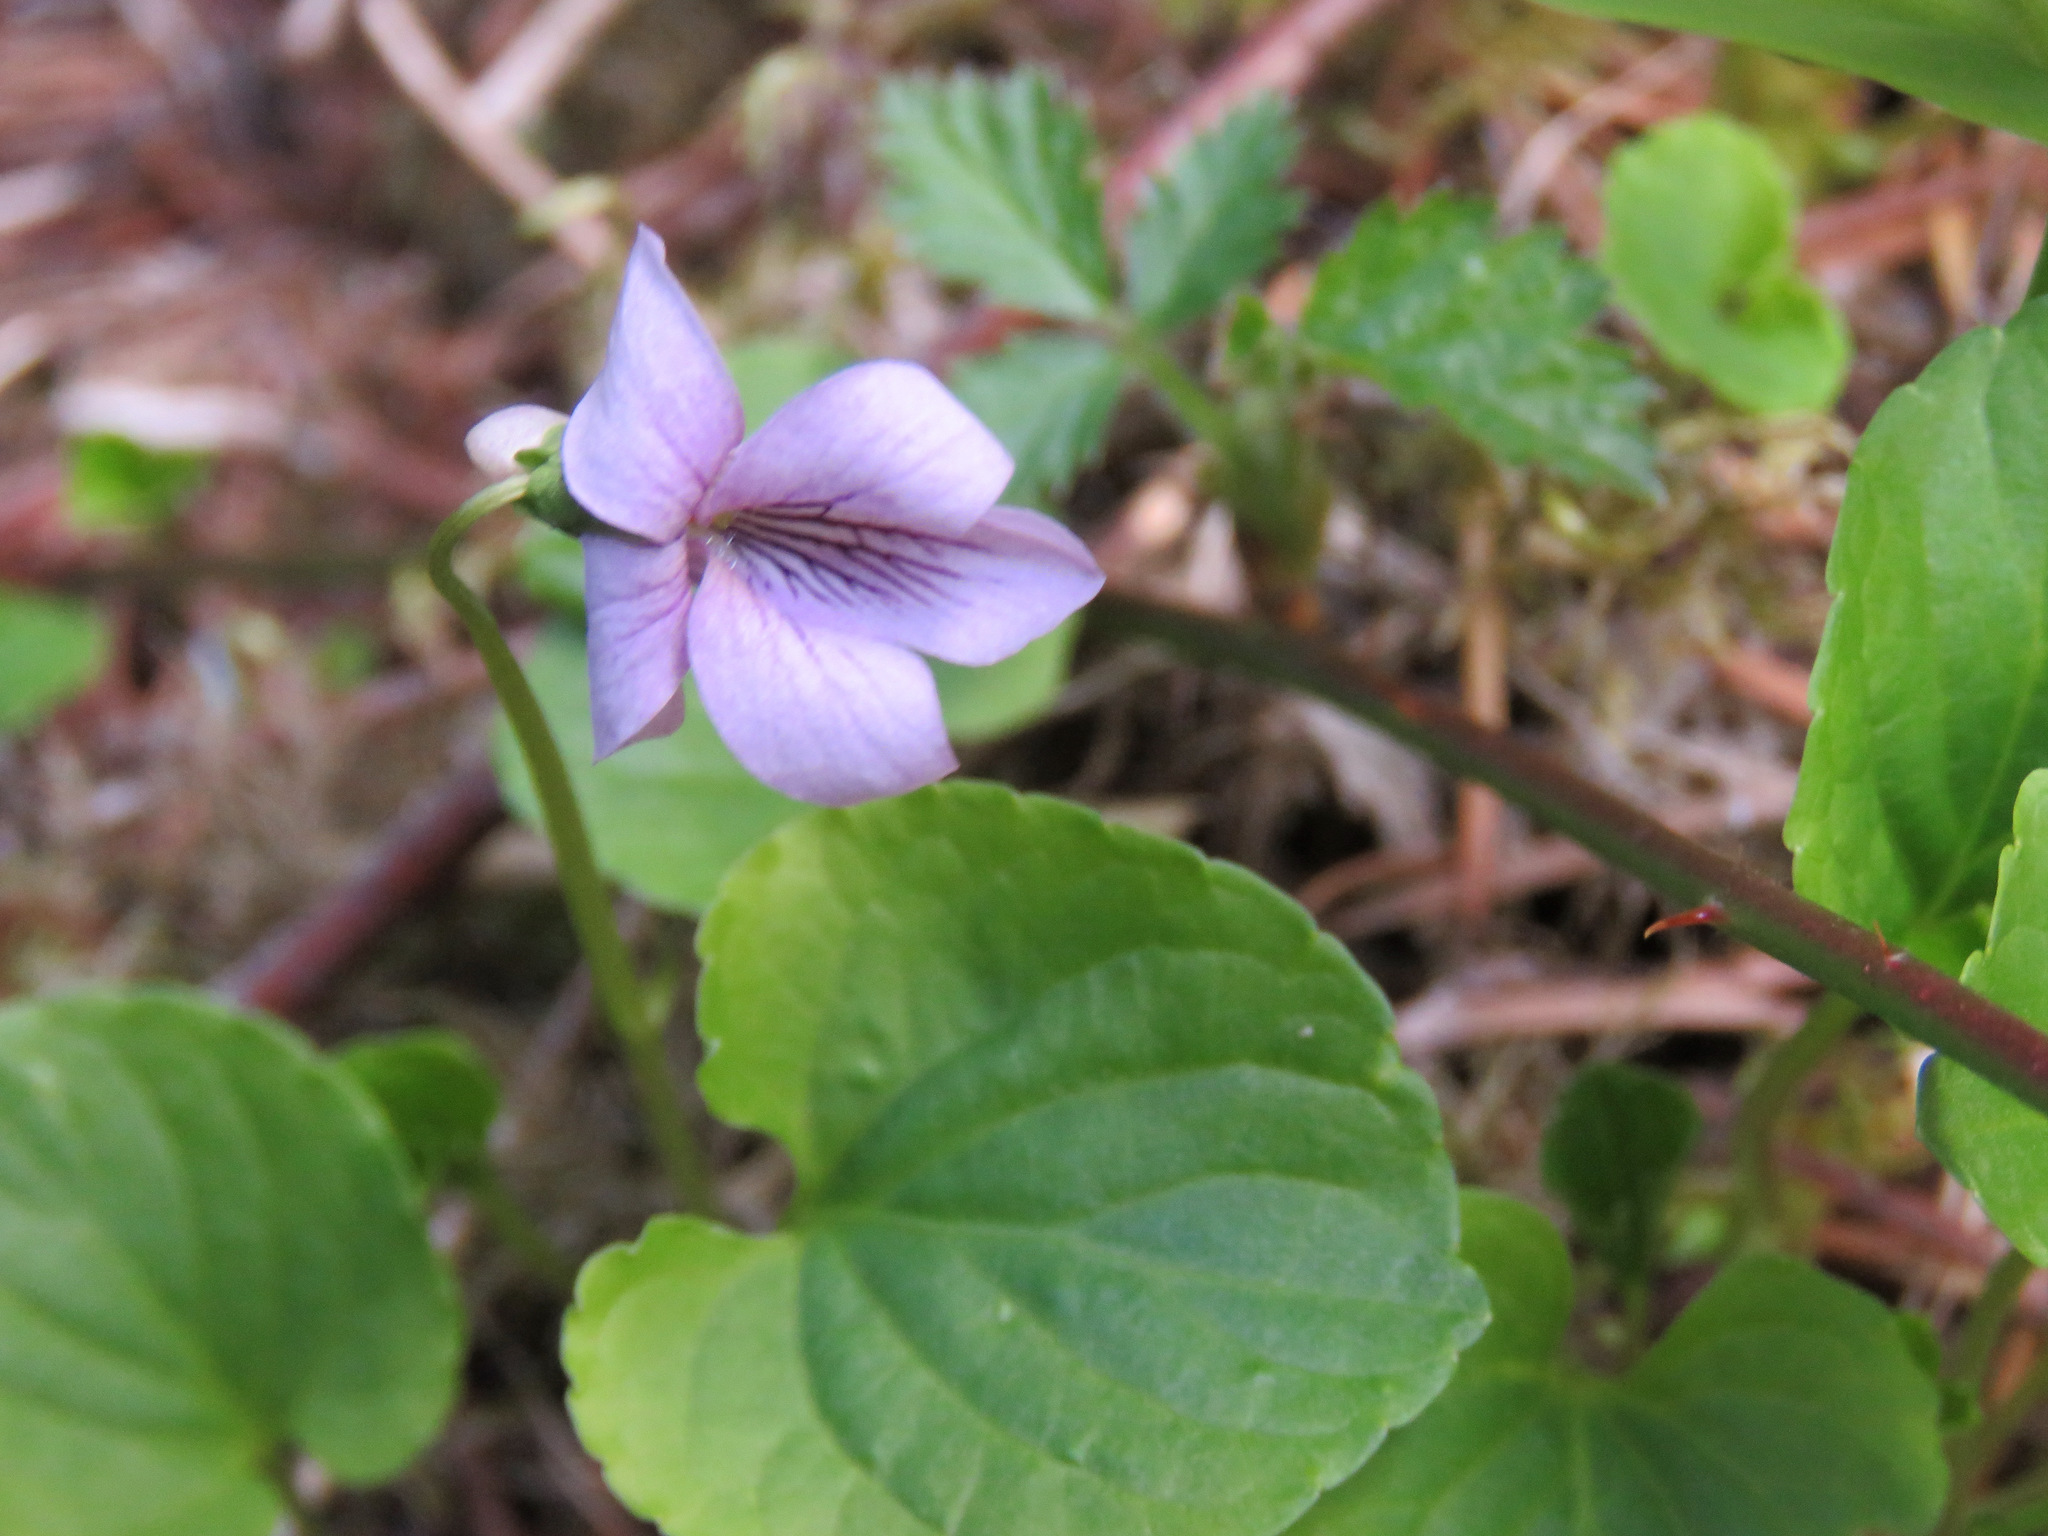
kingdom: Plantae
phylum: Tracheophyta
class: Magnoliopsida
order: Malpighiales
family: Violaceae
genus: Viola
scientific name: Viola palustris
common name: Marsh violet
